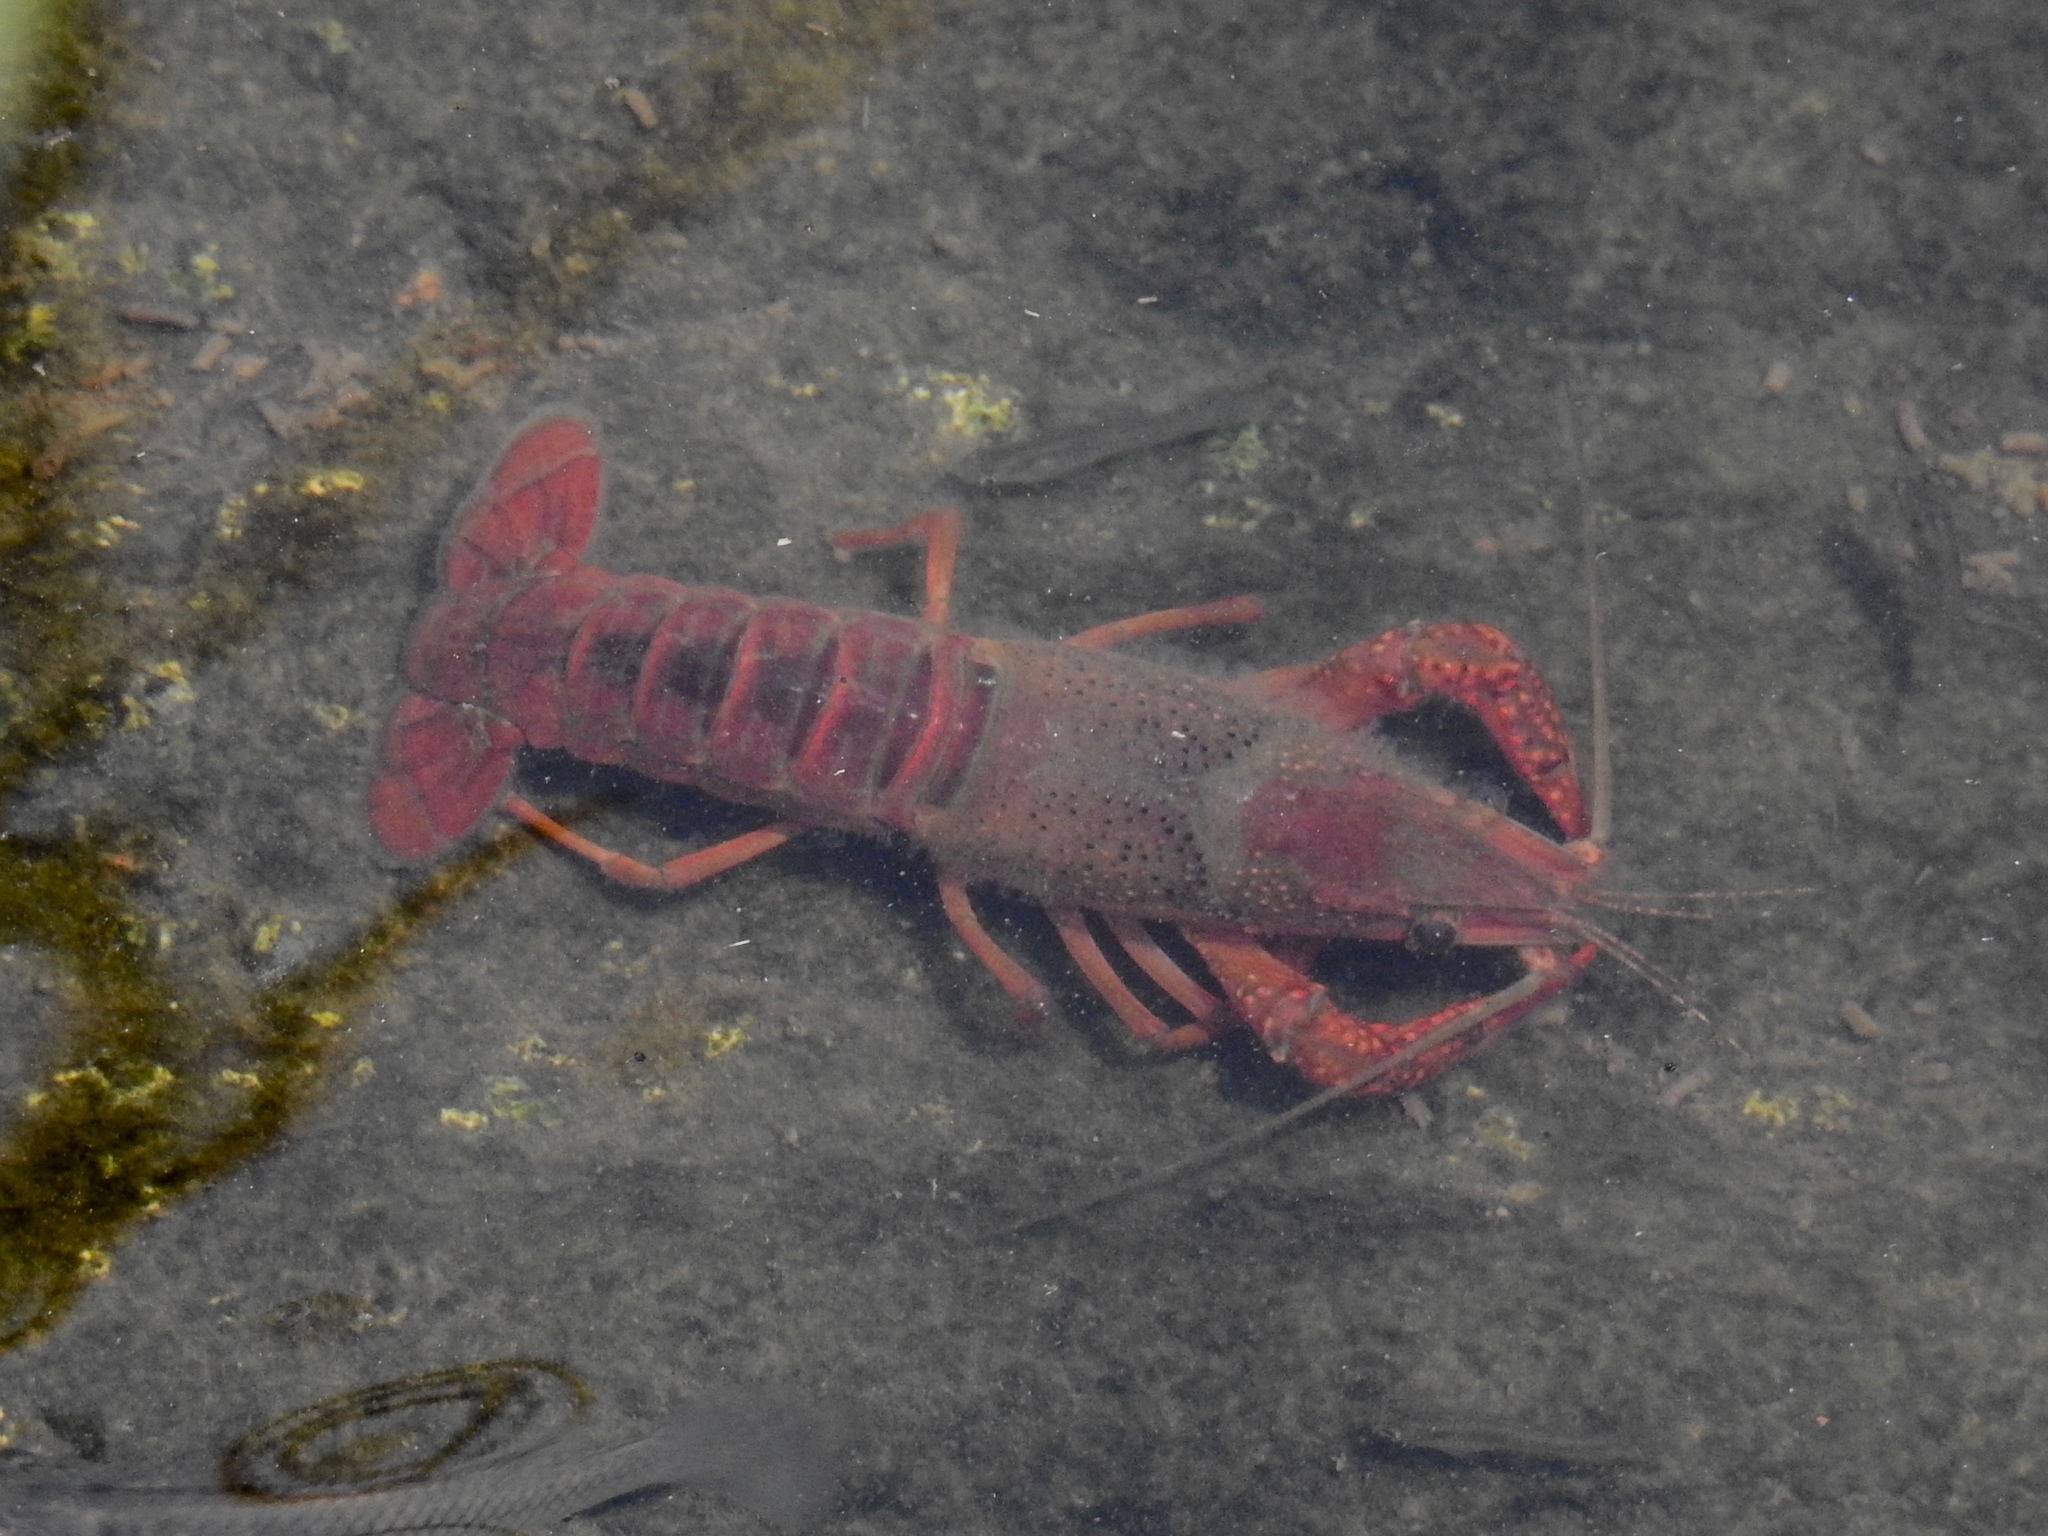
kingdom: Animalia
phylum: Arthropoda
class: Malacostraca
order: Decapoda
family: Cambaridae
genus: Procambarus
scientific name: Procambarus clarkii
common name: Red swamp crayfish
